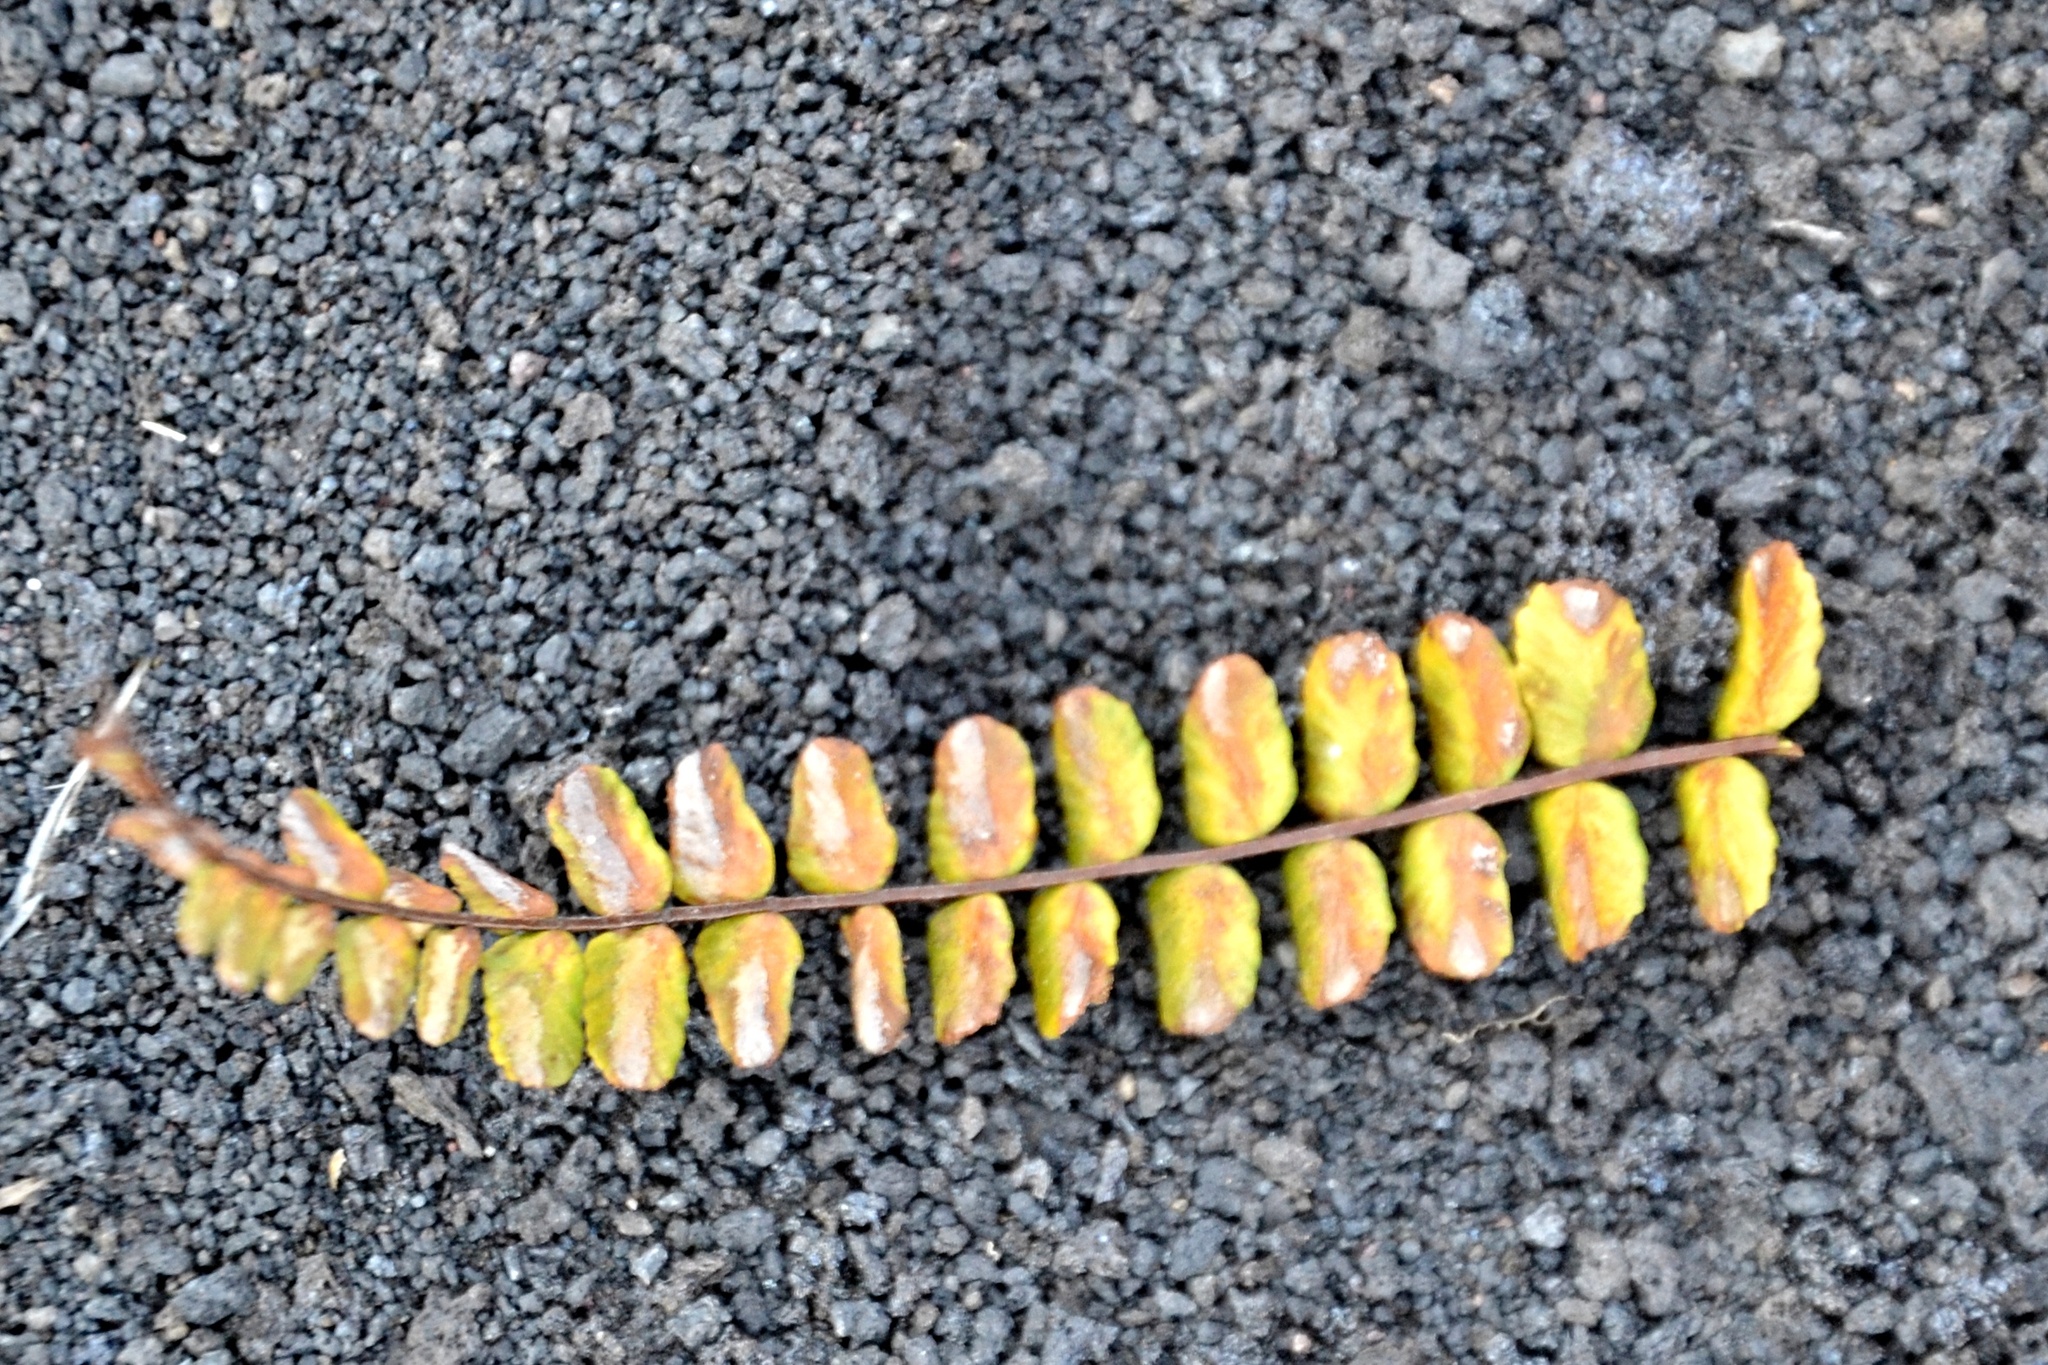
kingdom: Plantae
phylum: Tracheophyta
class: Polypodiopsida
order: Polypodiales
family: Aspleniaceae
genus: Asplenium
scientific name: Asplenium trichomanes
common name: Maidenhair spleenwort
